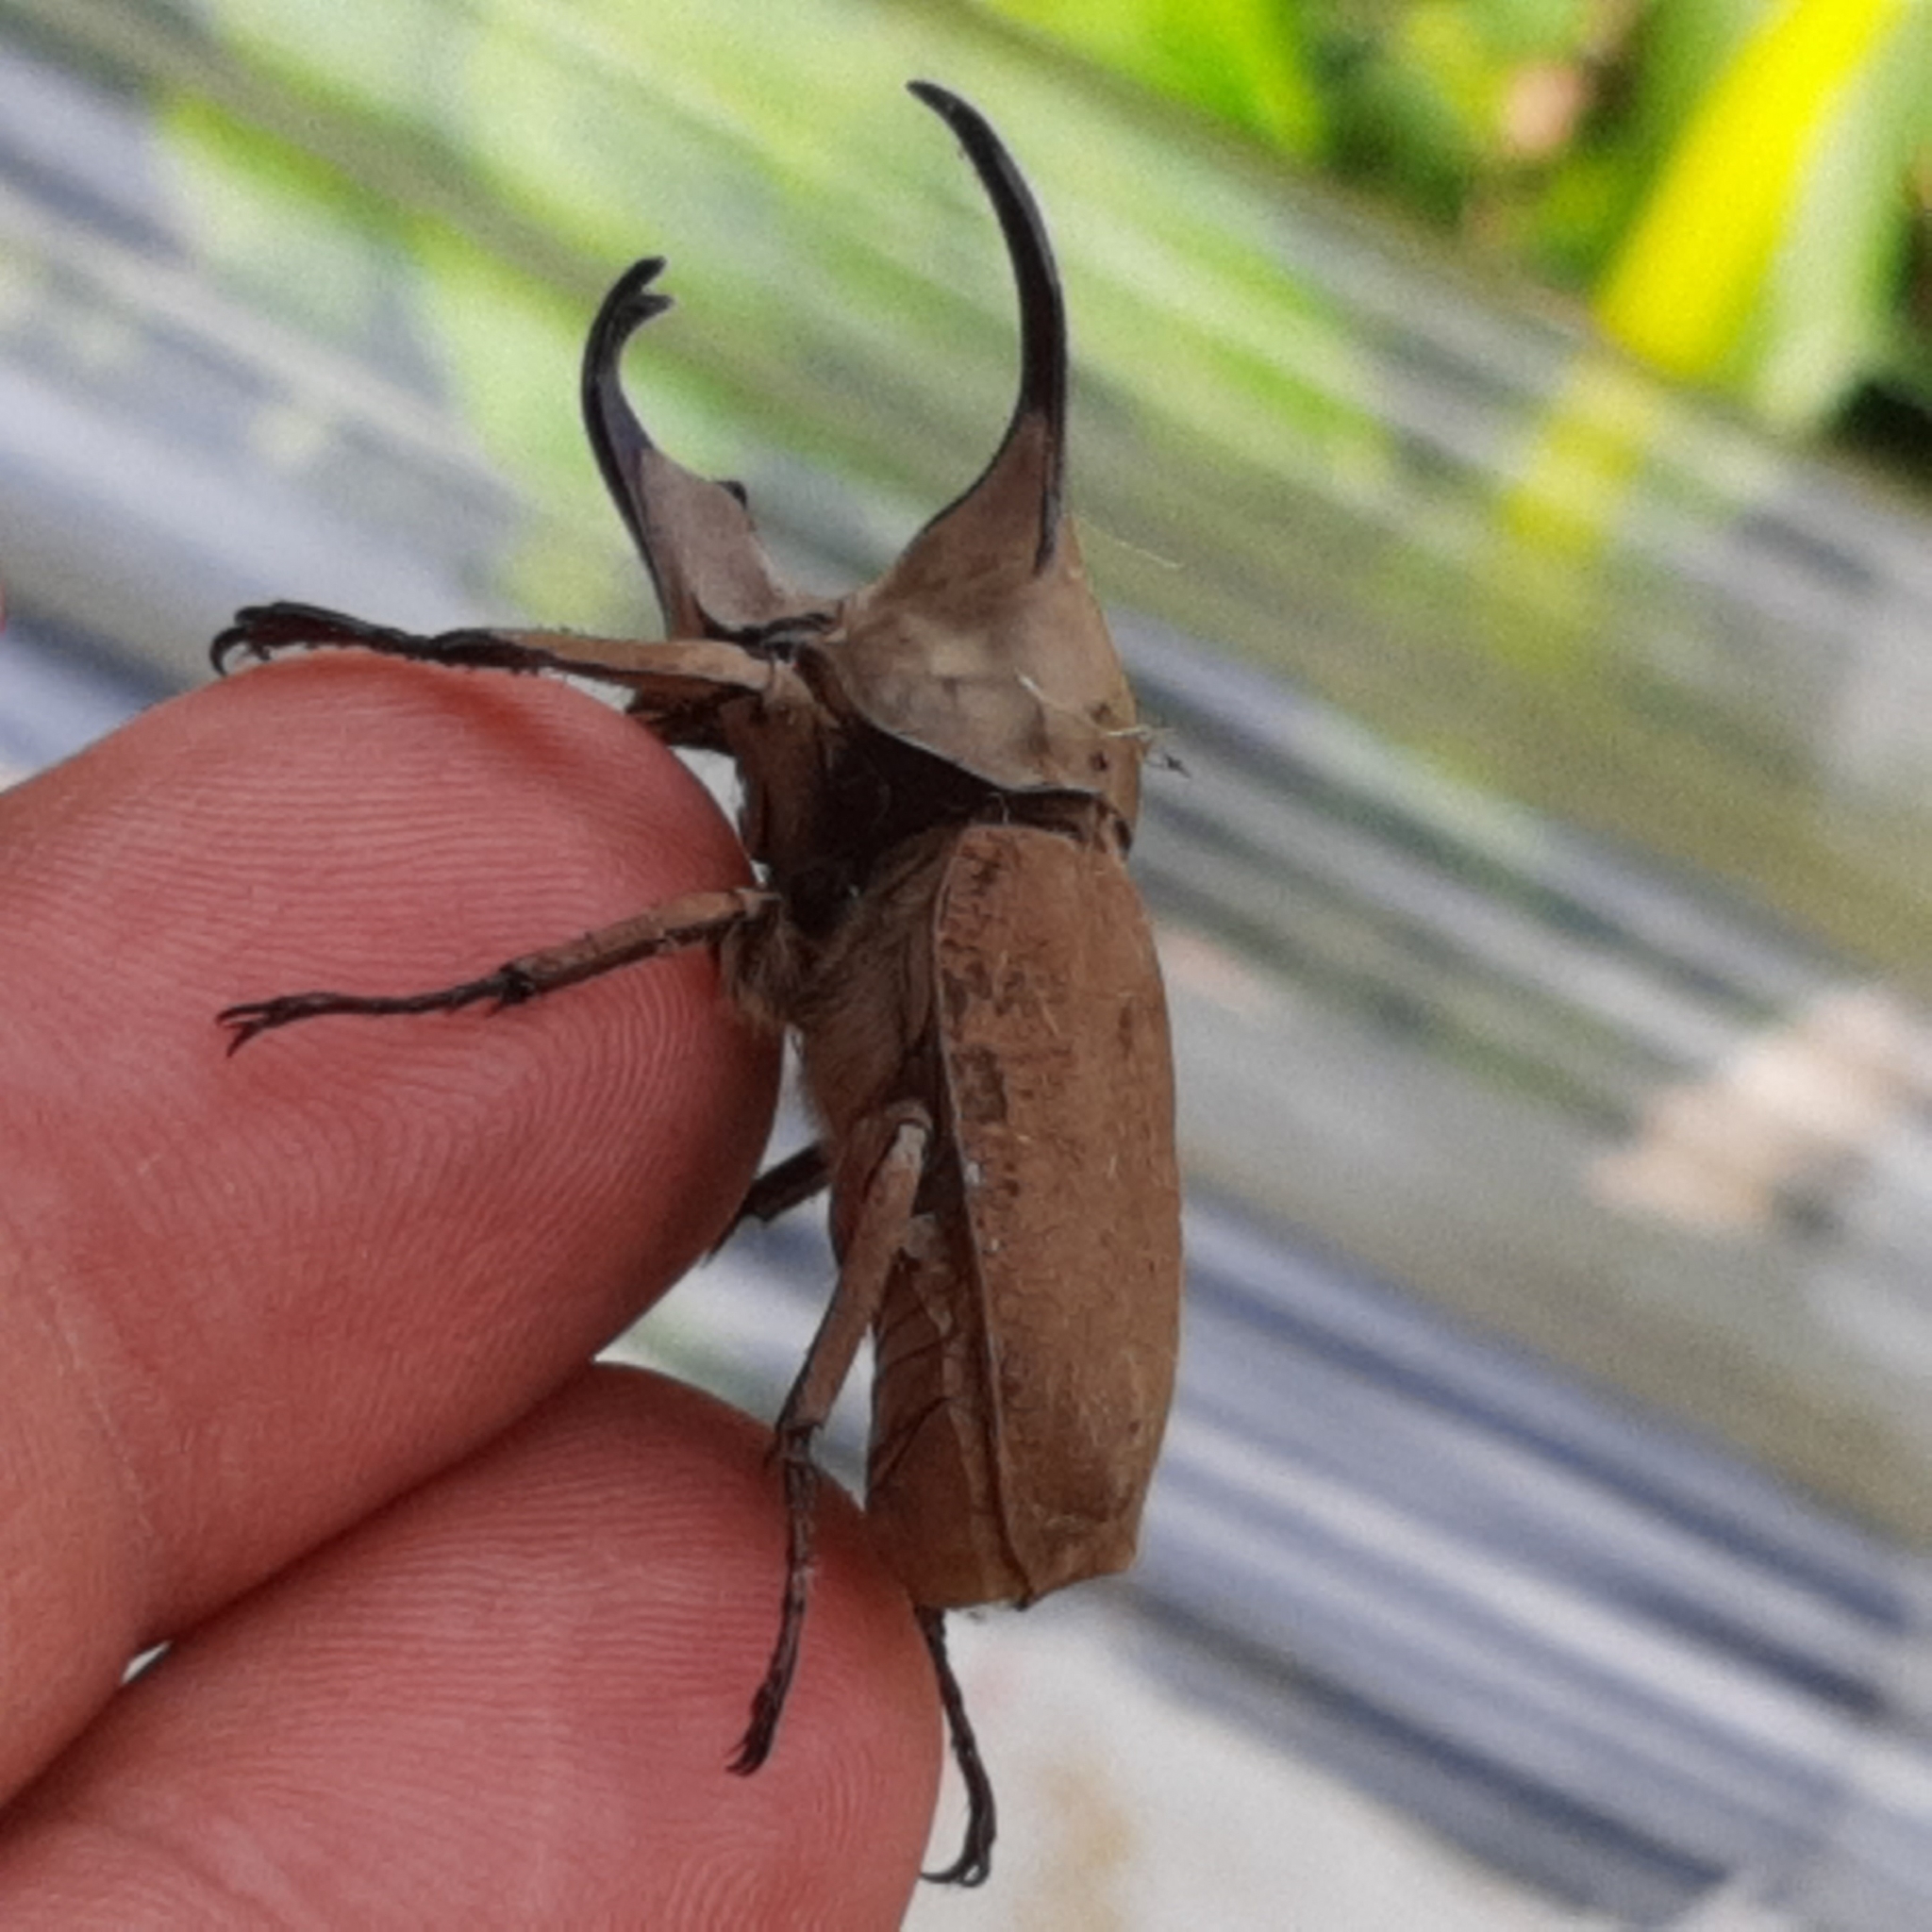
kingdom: Animalia
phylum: Arthropoda
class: Insecta
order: Coleoptera
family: Scarabaeidae
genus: Spodistes
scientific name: Spodistes batesi
